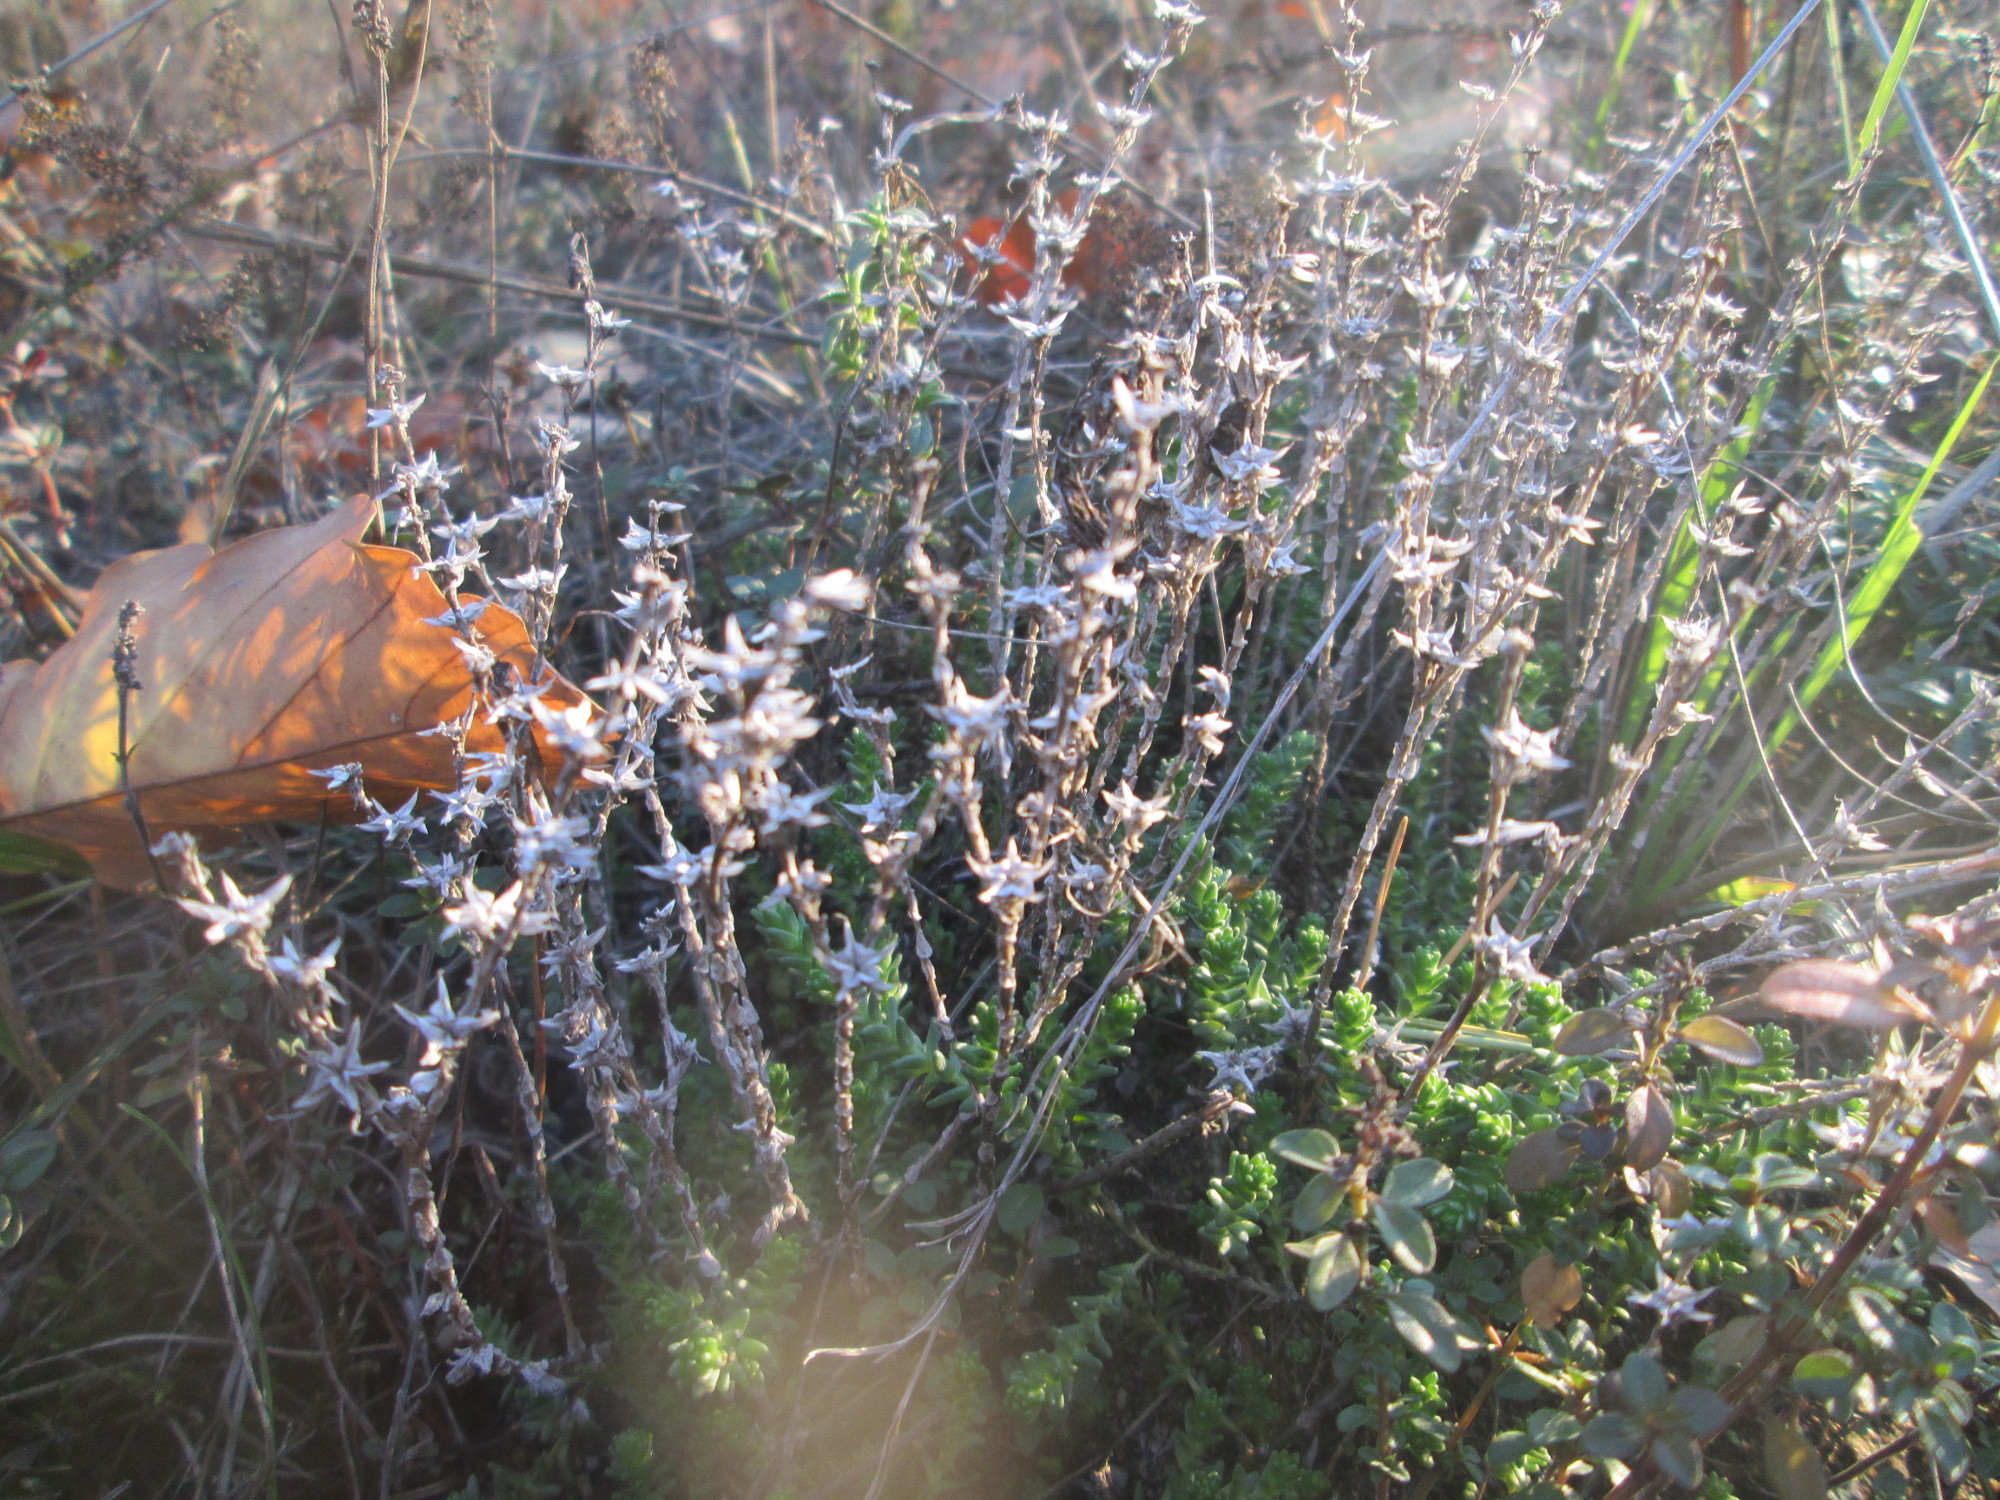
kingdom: Plantae
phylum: Tracheophyta
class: Magnoliopsida
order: Saxifragales
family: Crassulaceae
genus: Sedum
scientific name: Sedum acre
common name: Biting stonecrop
